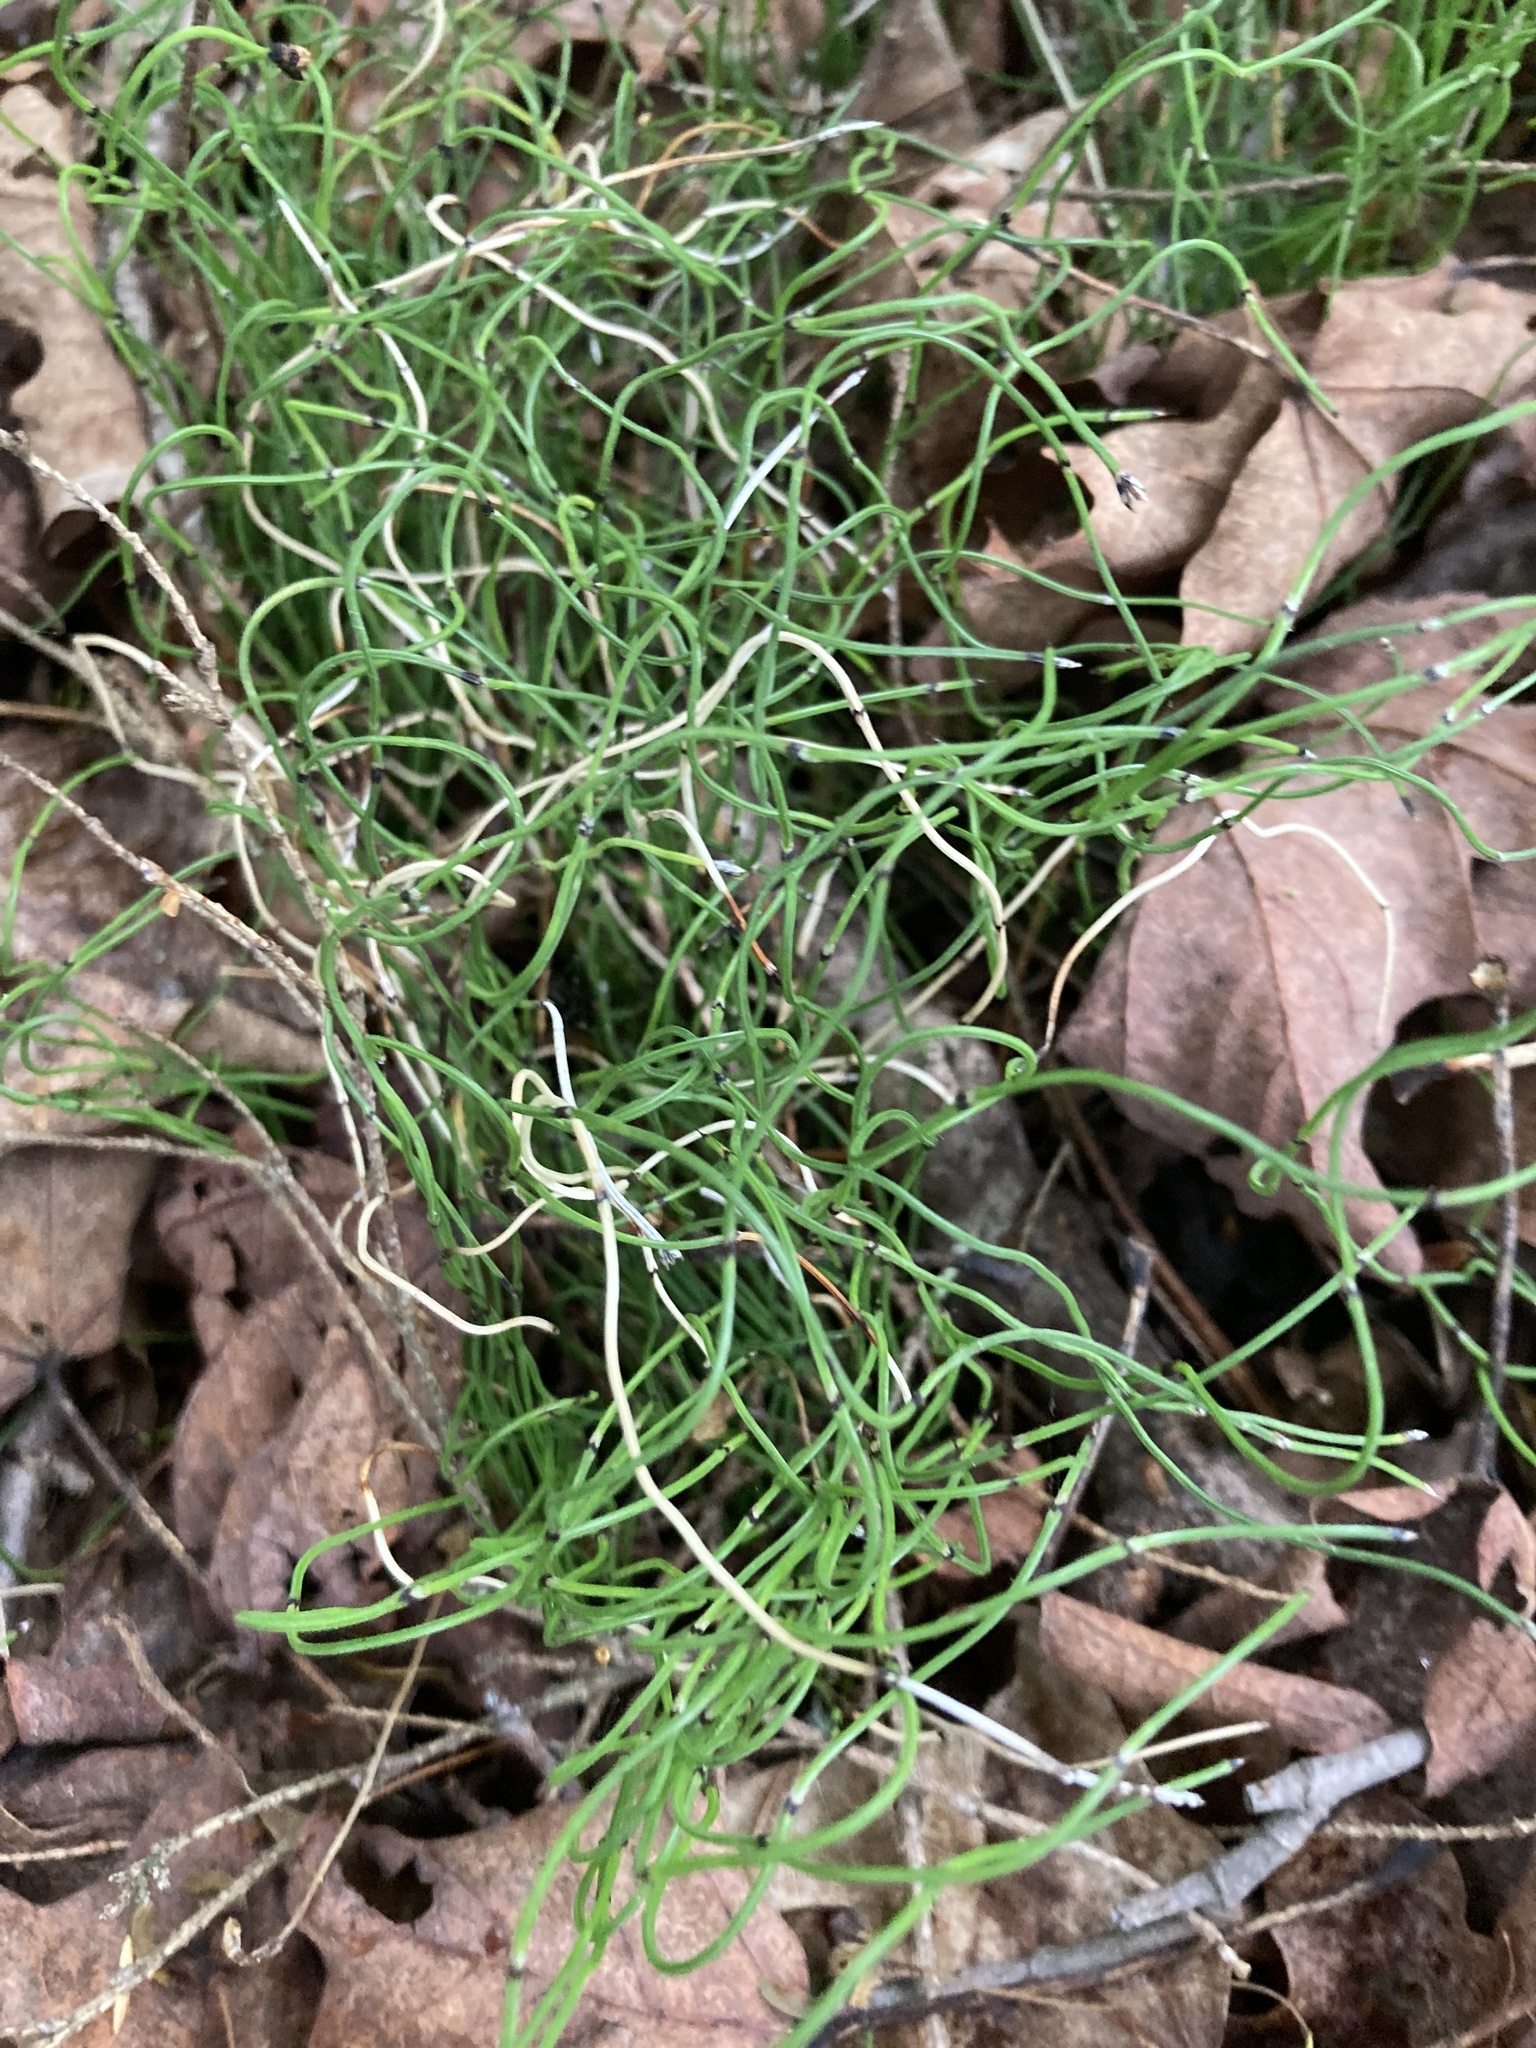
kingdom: Plantae
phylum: Tracheophyta
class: Polypodiopsida
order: Equisetales
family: Equisetaceae
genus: Equisetum
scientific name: Equisetum scirpoides
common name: Delicate horsetail
